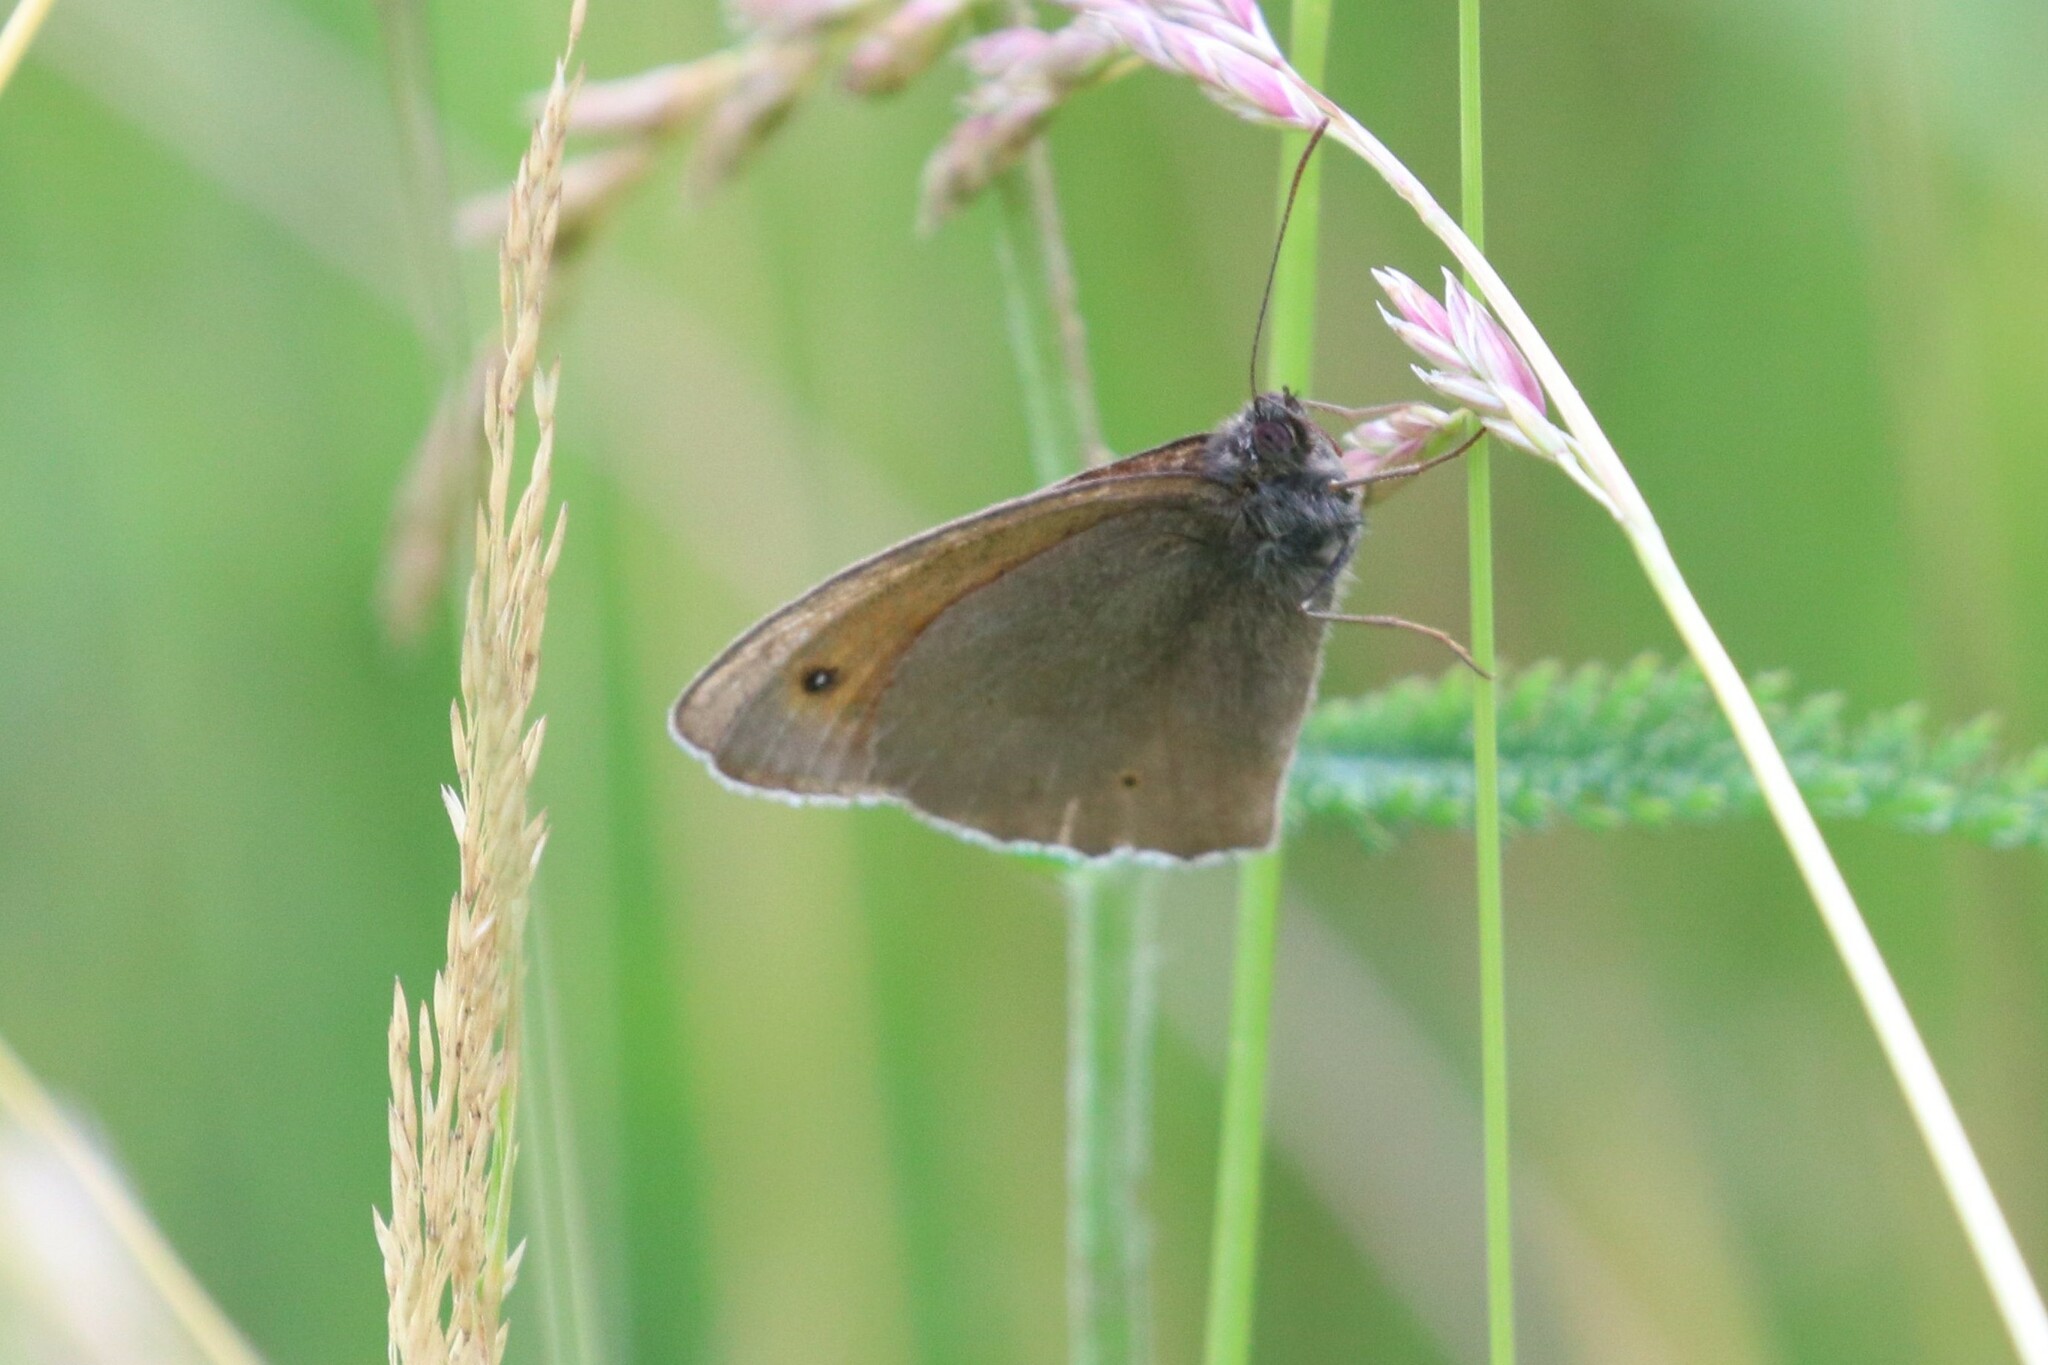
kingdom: Animalia
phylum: Arthropoda
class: Insecta
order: Lepidoptera
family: Nymphalidae
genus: Maniola
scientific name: Maniola jurtina
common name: Meadow brown
